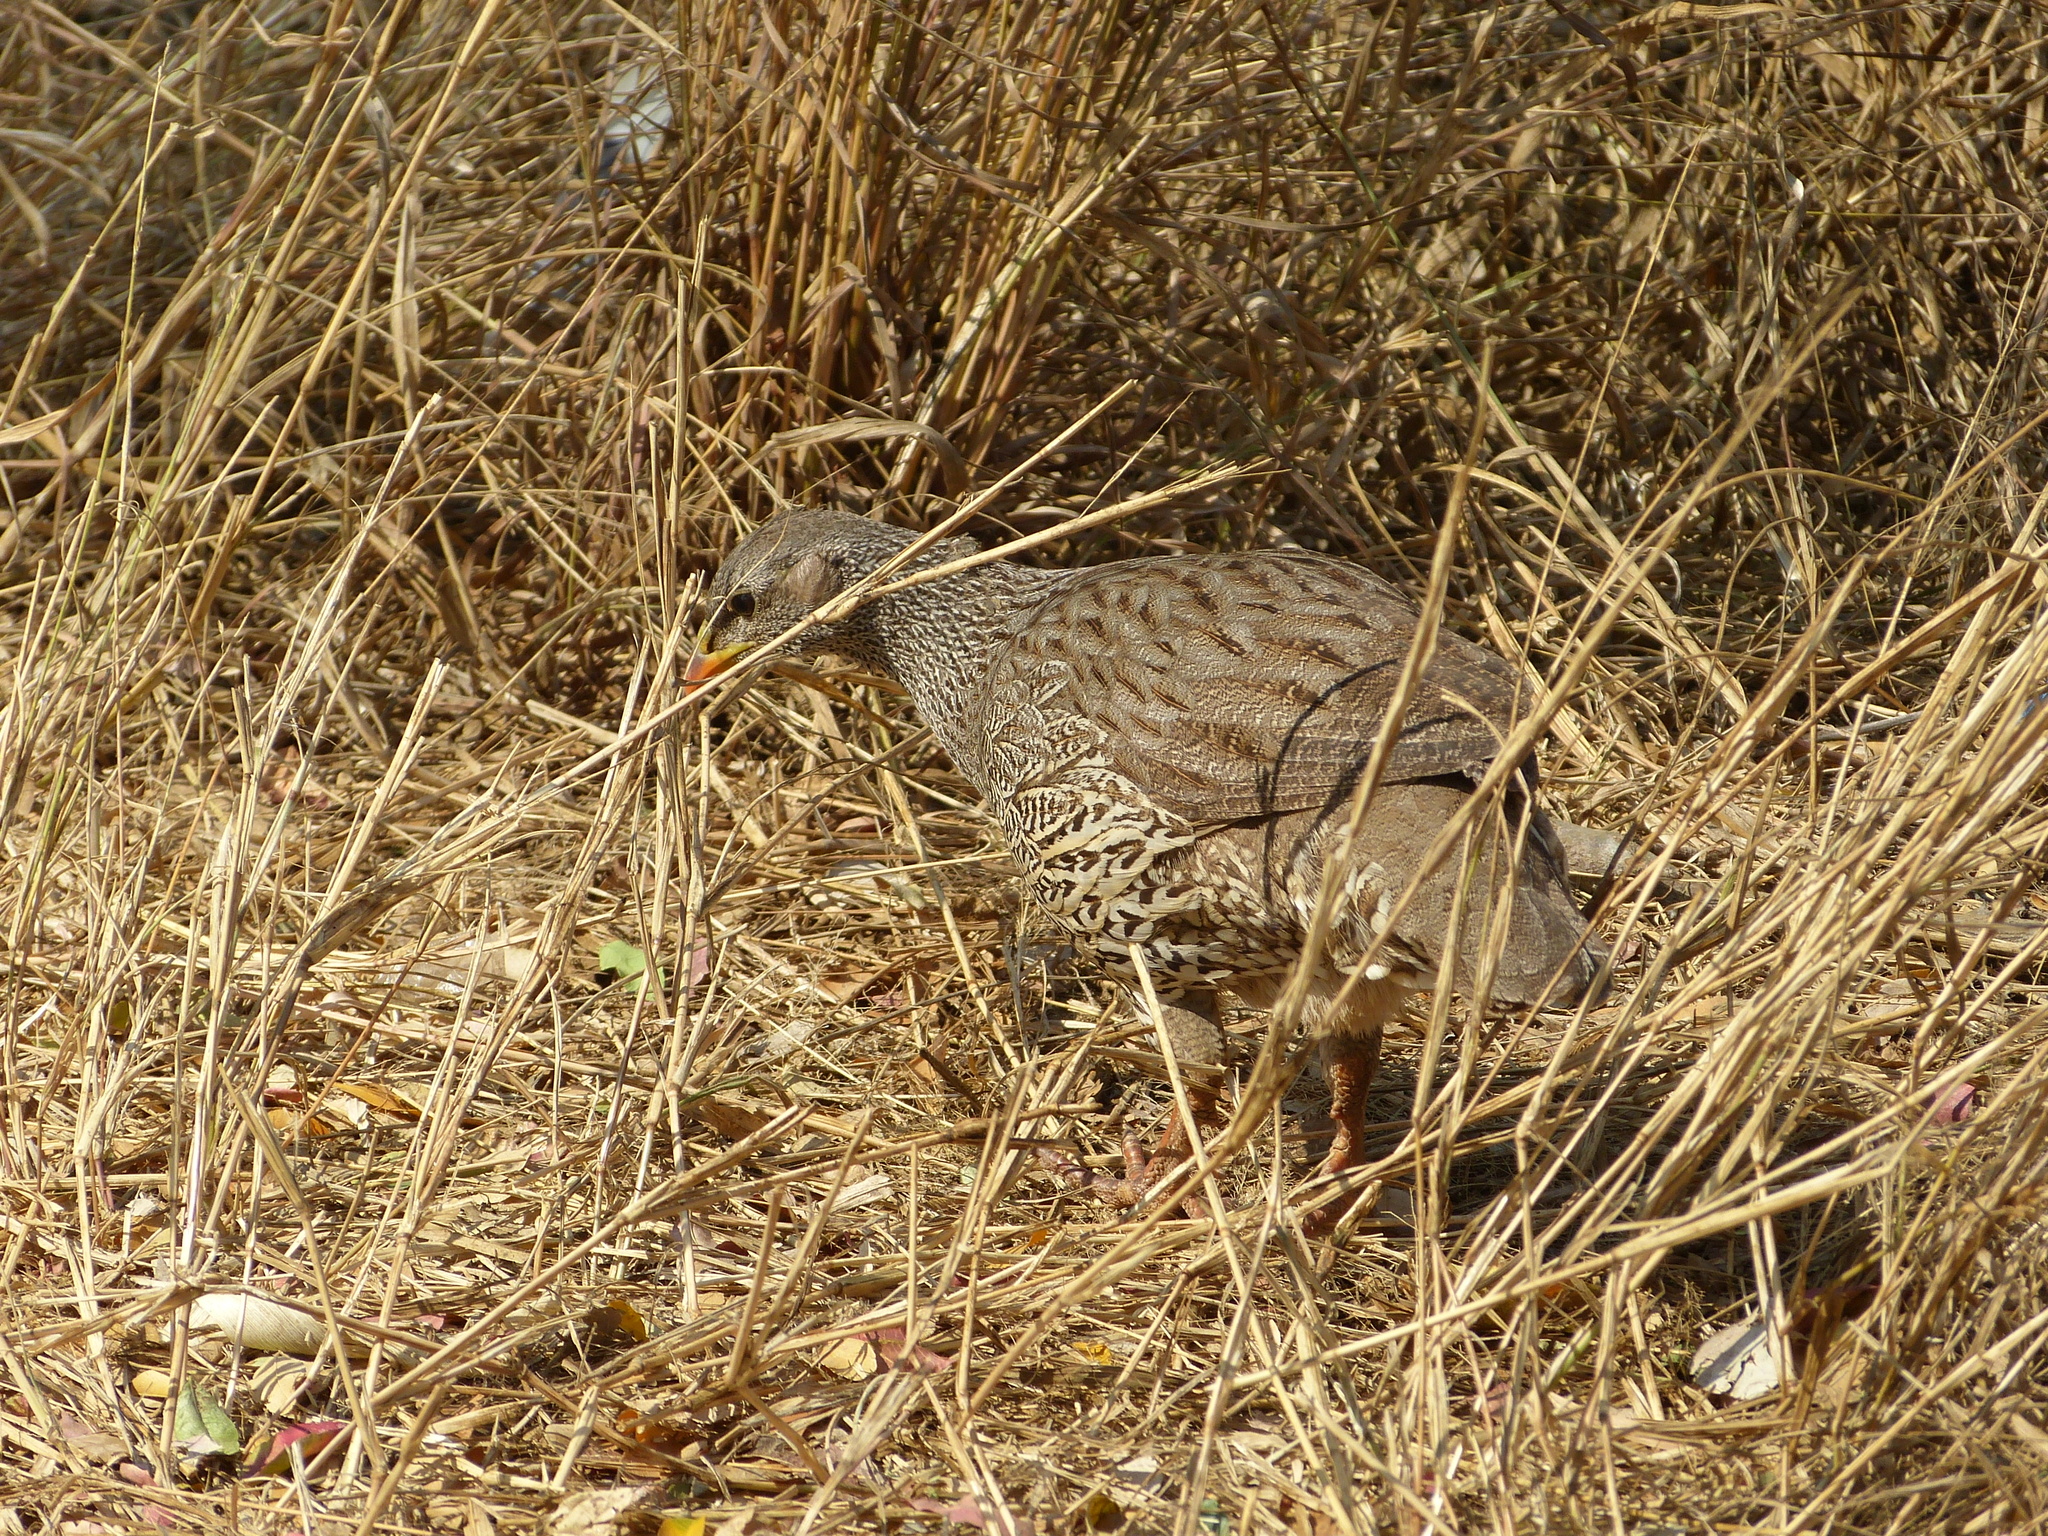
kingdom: Animalia
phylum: Chordata
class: Aves
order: Galliformes
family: Phasianidae
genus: Pternistis
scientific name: Pternistis natalensis
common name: Natal spurfowl
